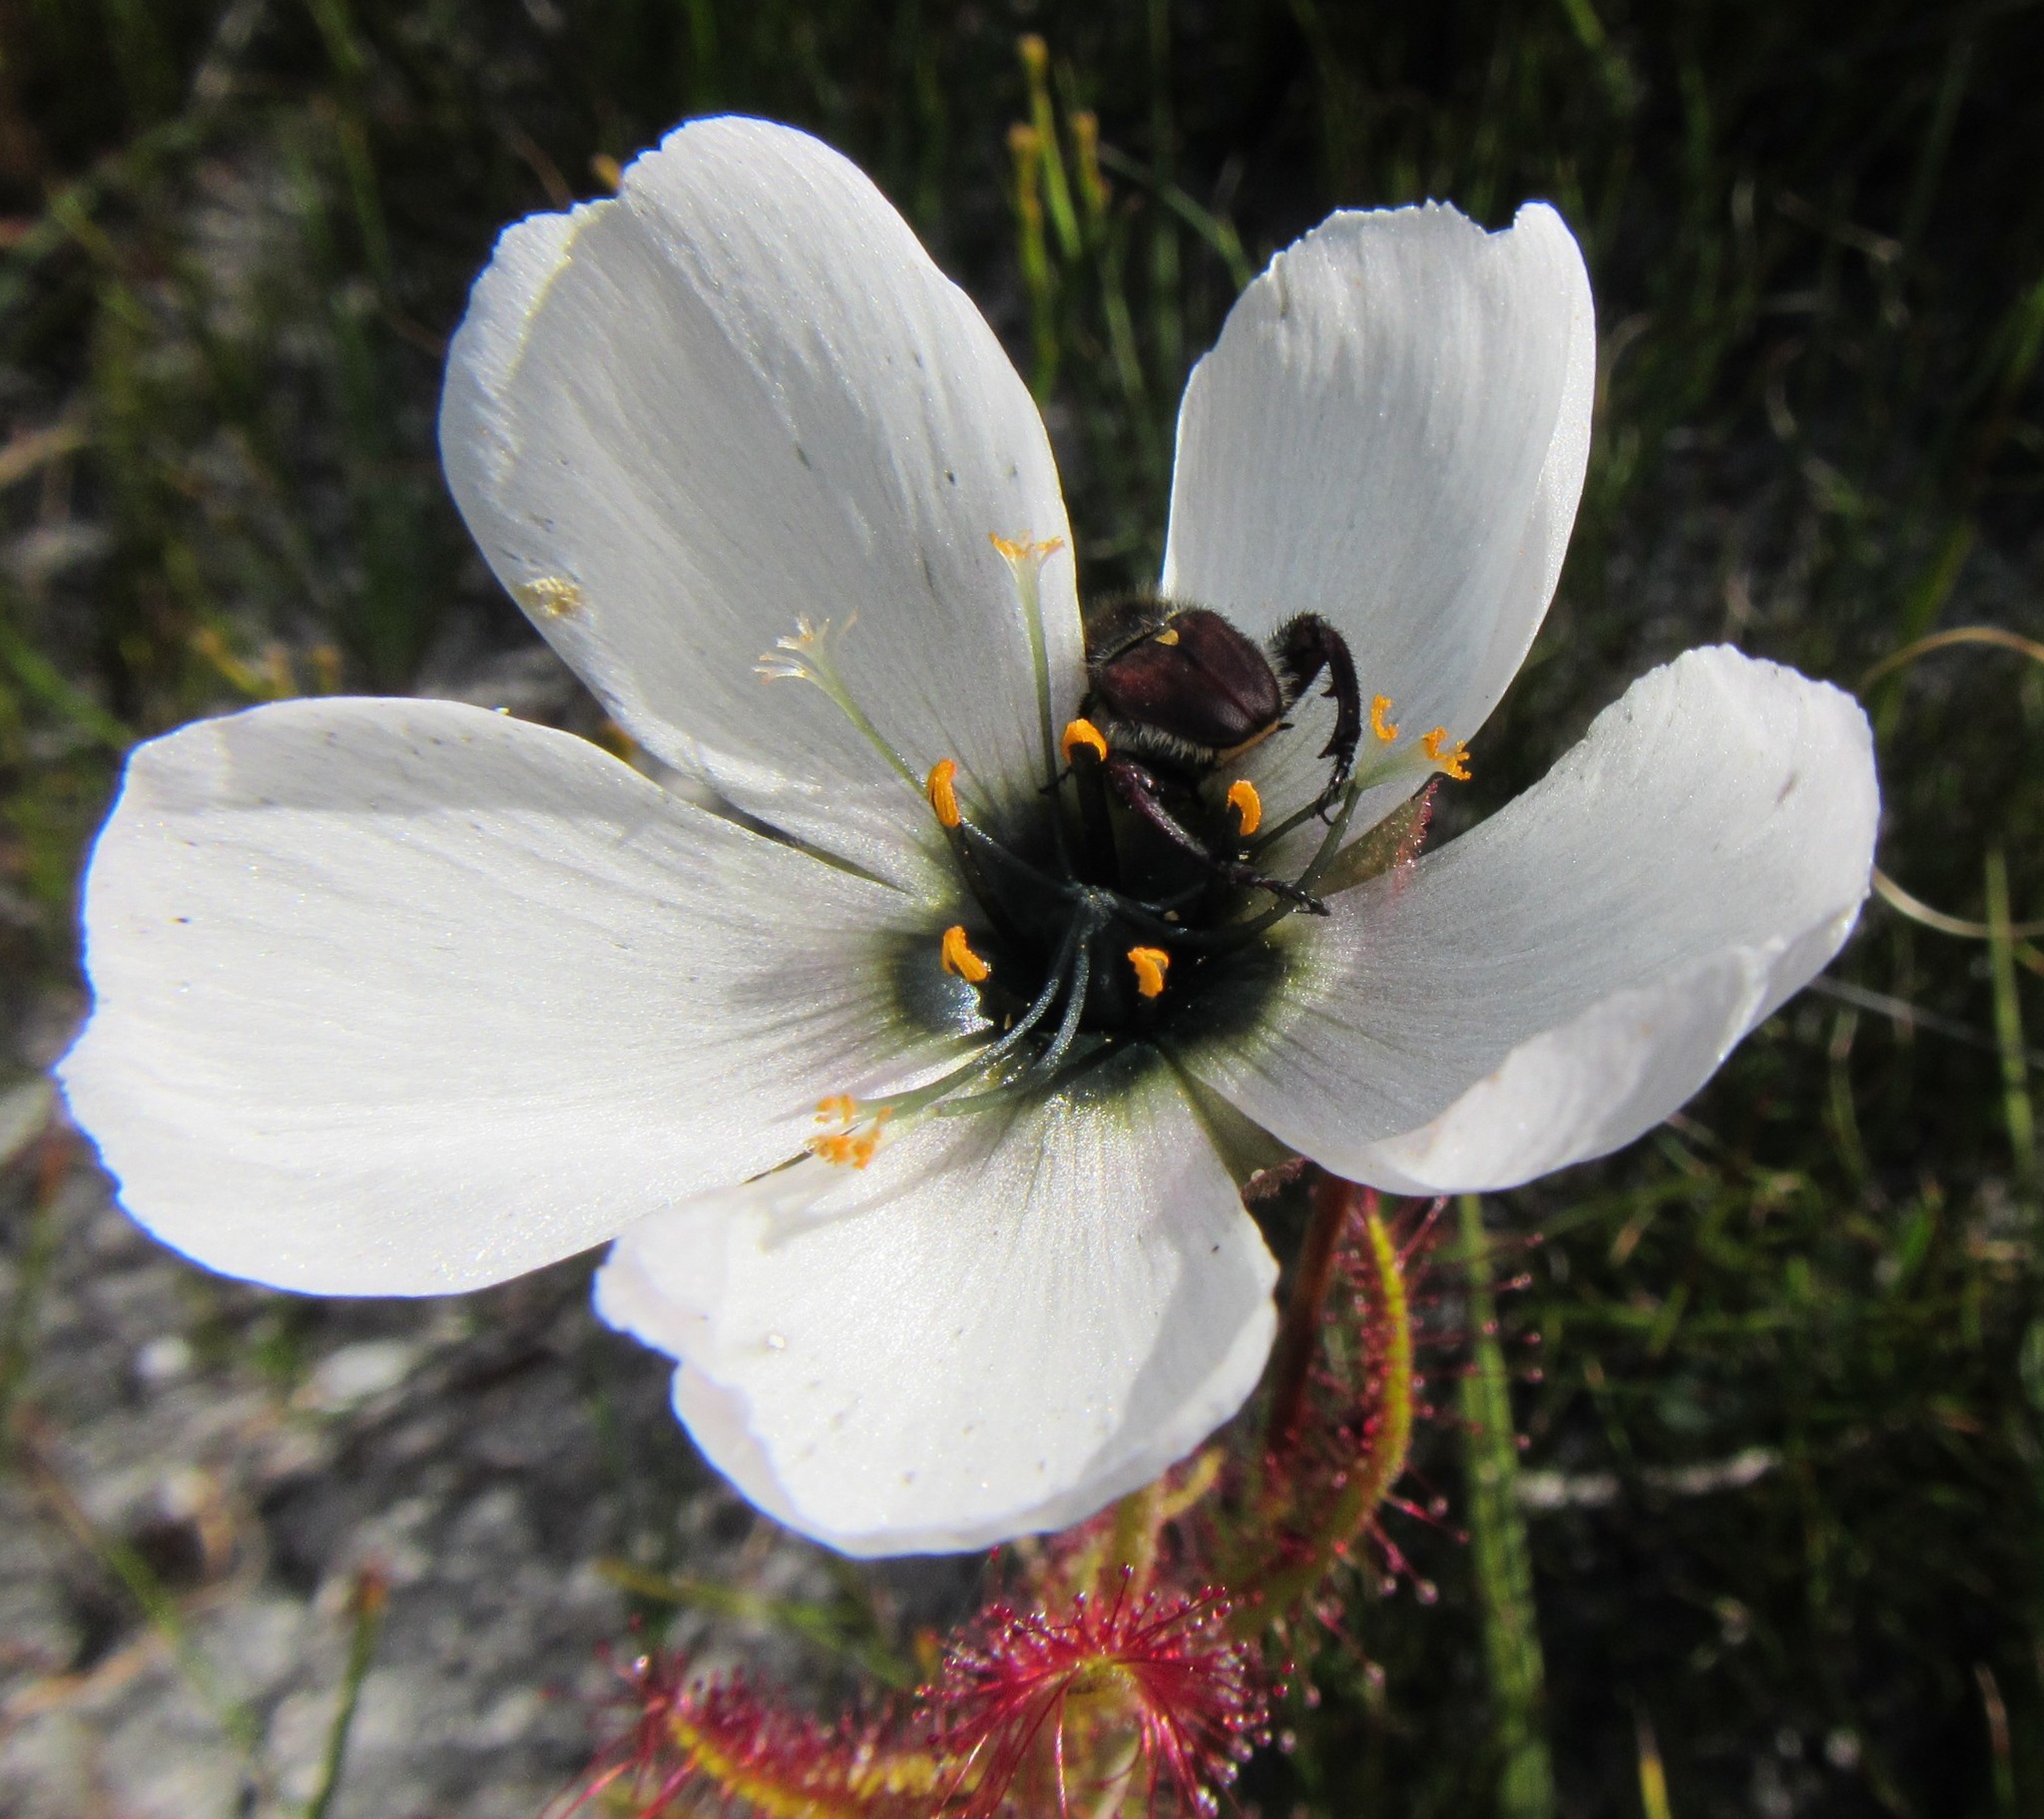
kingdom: Plantae
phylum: Tracheophyta
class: Magnoliopsida
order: Caryophyllales
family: Droseraceae
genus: Drosera
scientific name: Drosera cistiflora
